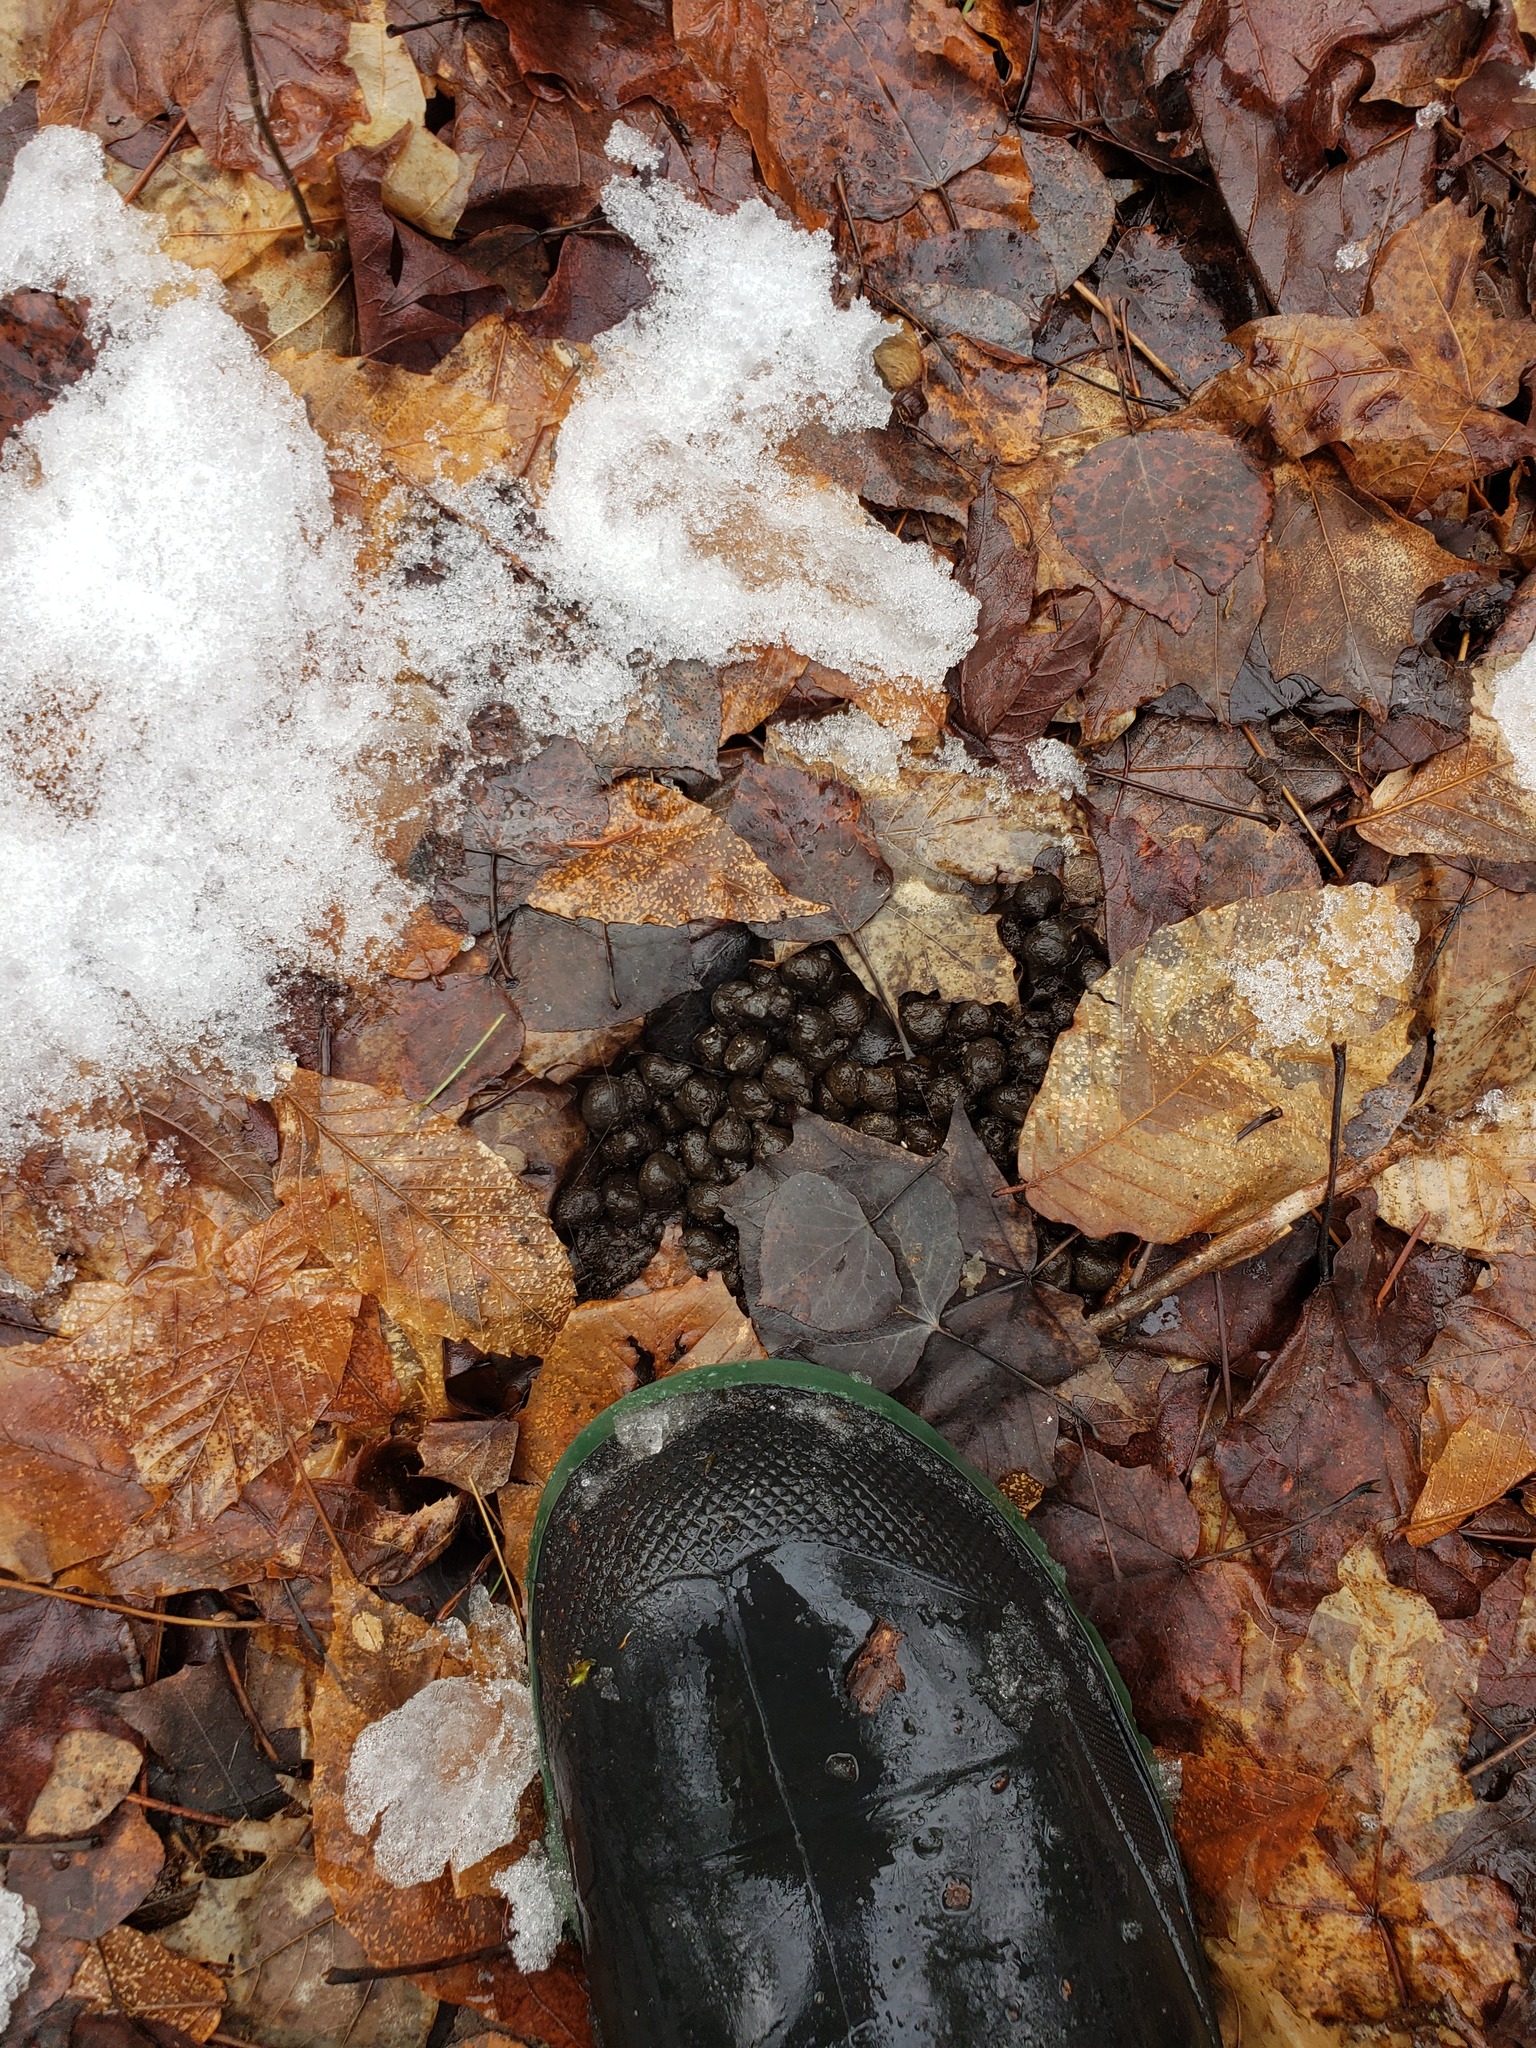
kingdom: Animalia
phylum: Chordata
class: Mammalia
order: Artiodactyla
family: Cervidae
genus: Odocoileus
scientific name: Odocoileus virginianus
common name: White-tailed deer
